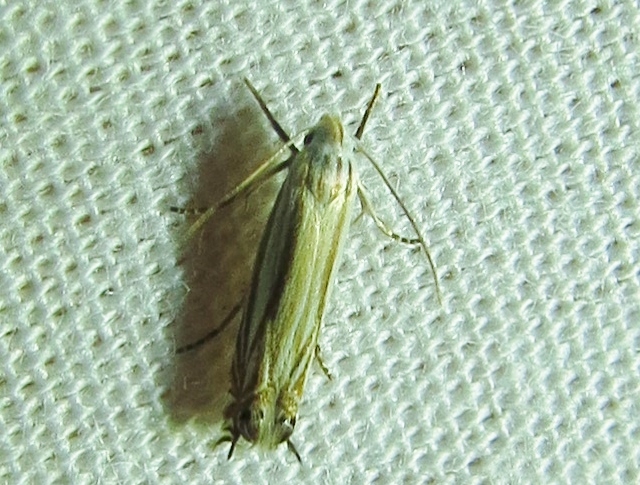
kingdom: Animalia
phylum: Arthropoda
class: Insecta
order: Lepidoptera
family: Gelechiidae
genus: Polyhymno
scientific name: Polyhymno luteostrigella
